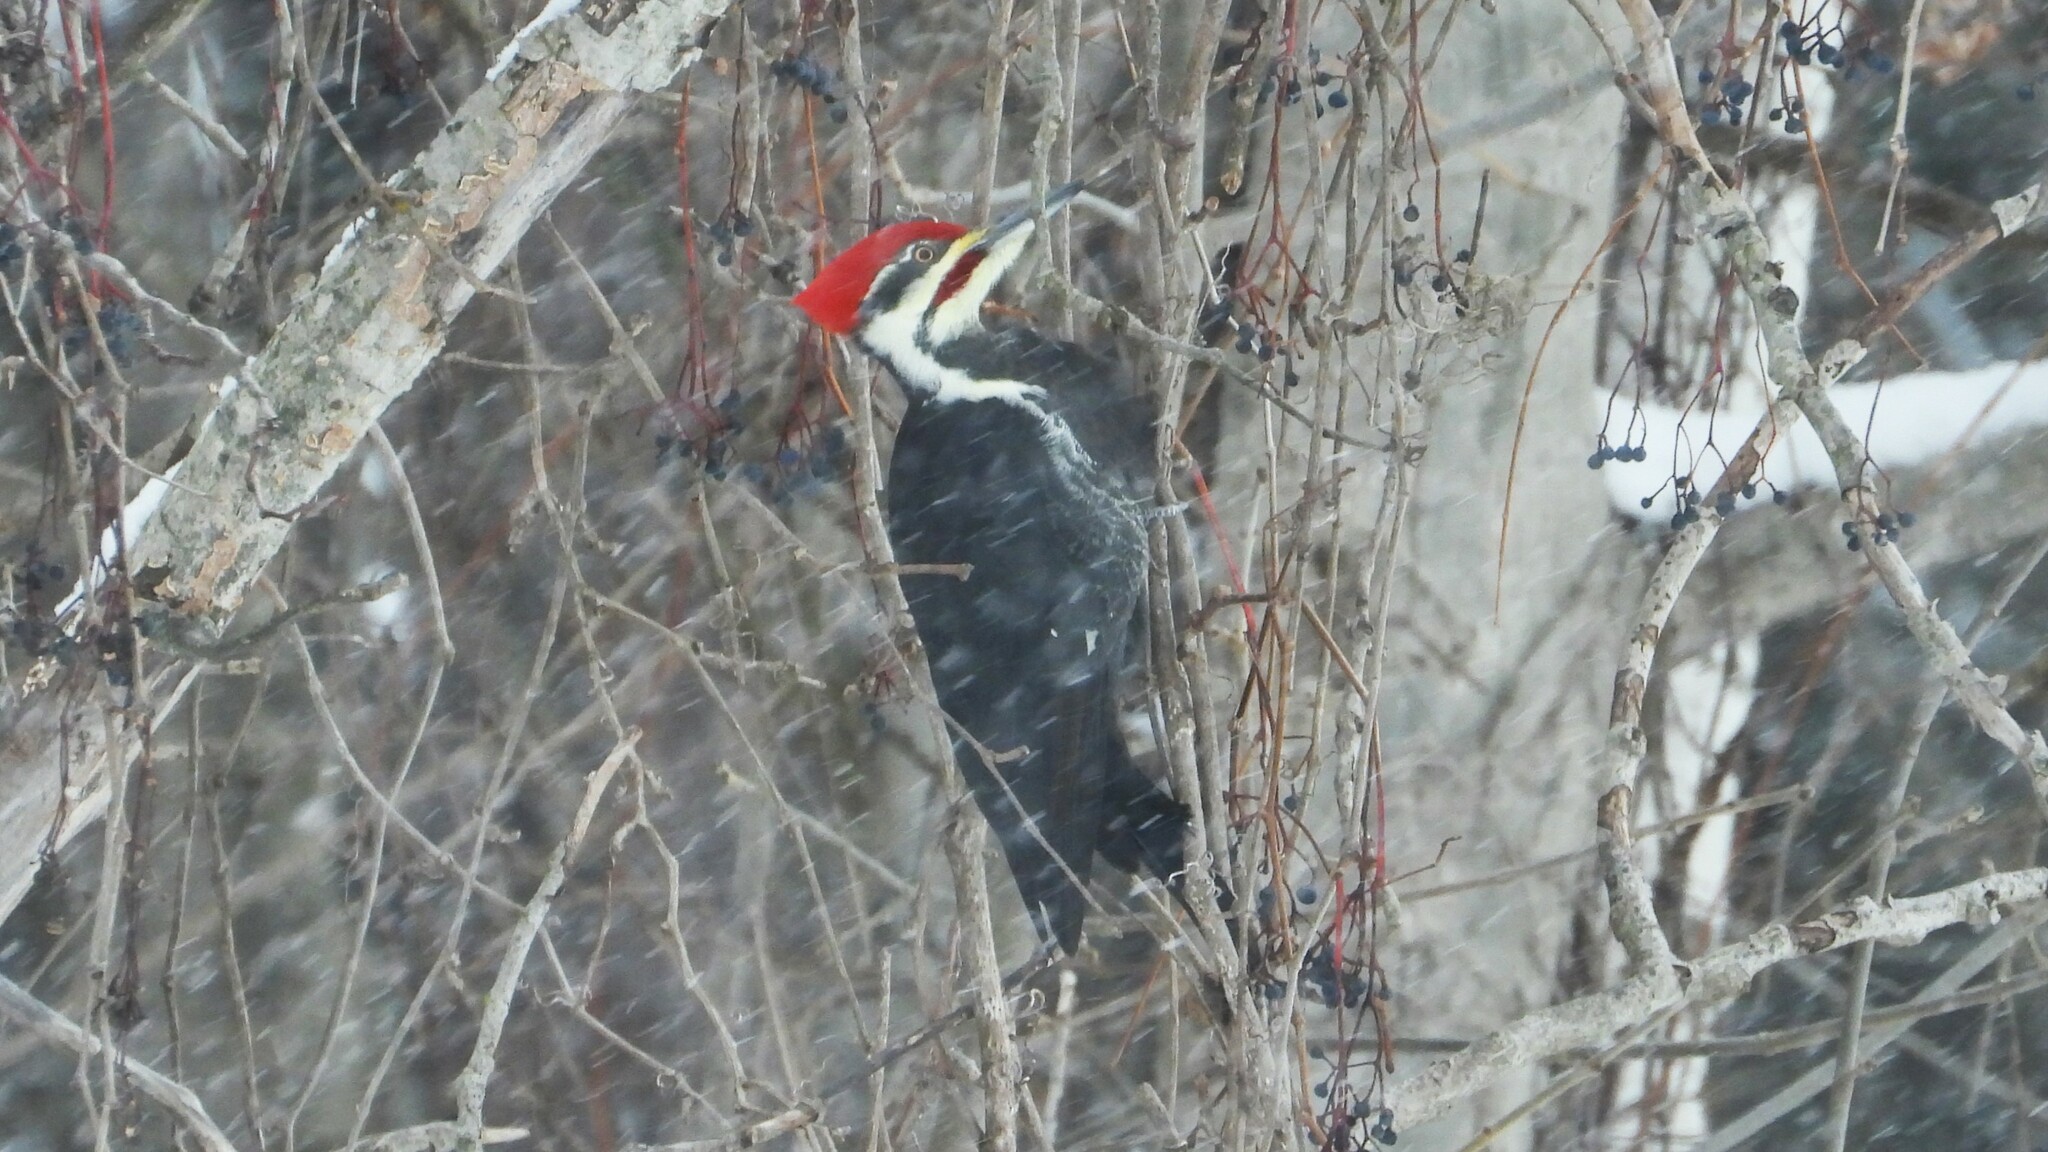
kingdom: Animalia
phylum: Chordata
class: Aves
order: Piciformes
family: Picidae
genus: Dryocopus
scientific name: Dryocopus pileatus
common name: Pileated woodpecker
